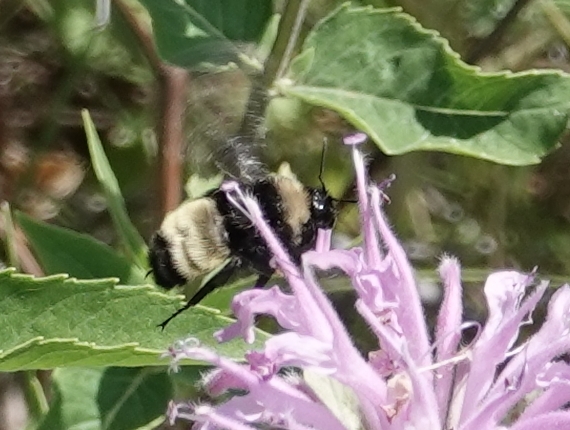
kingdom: Animalia
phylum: Arthropoda
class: Insecta
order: Hymenoptera
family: Apidae
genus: Bombus
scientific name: Bombus pensylvanicus
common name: Bumble bee
